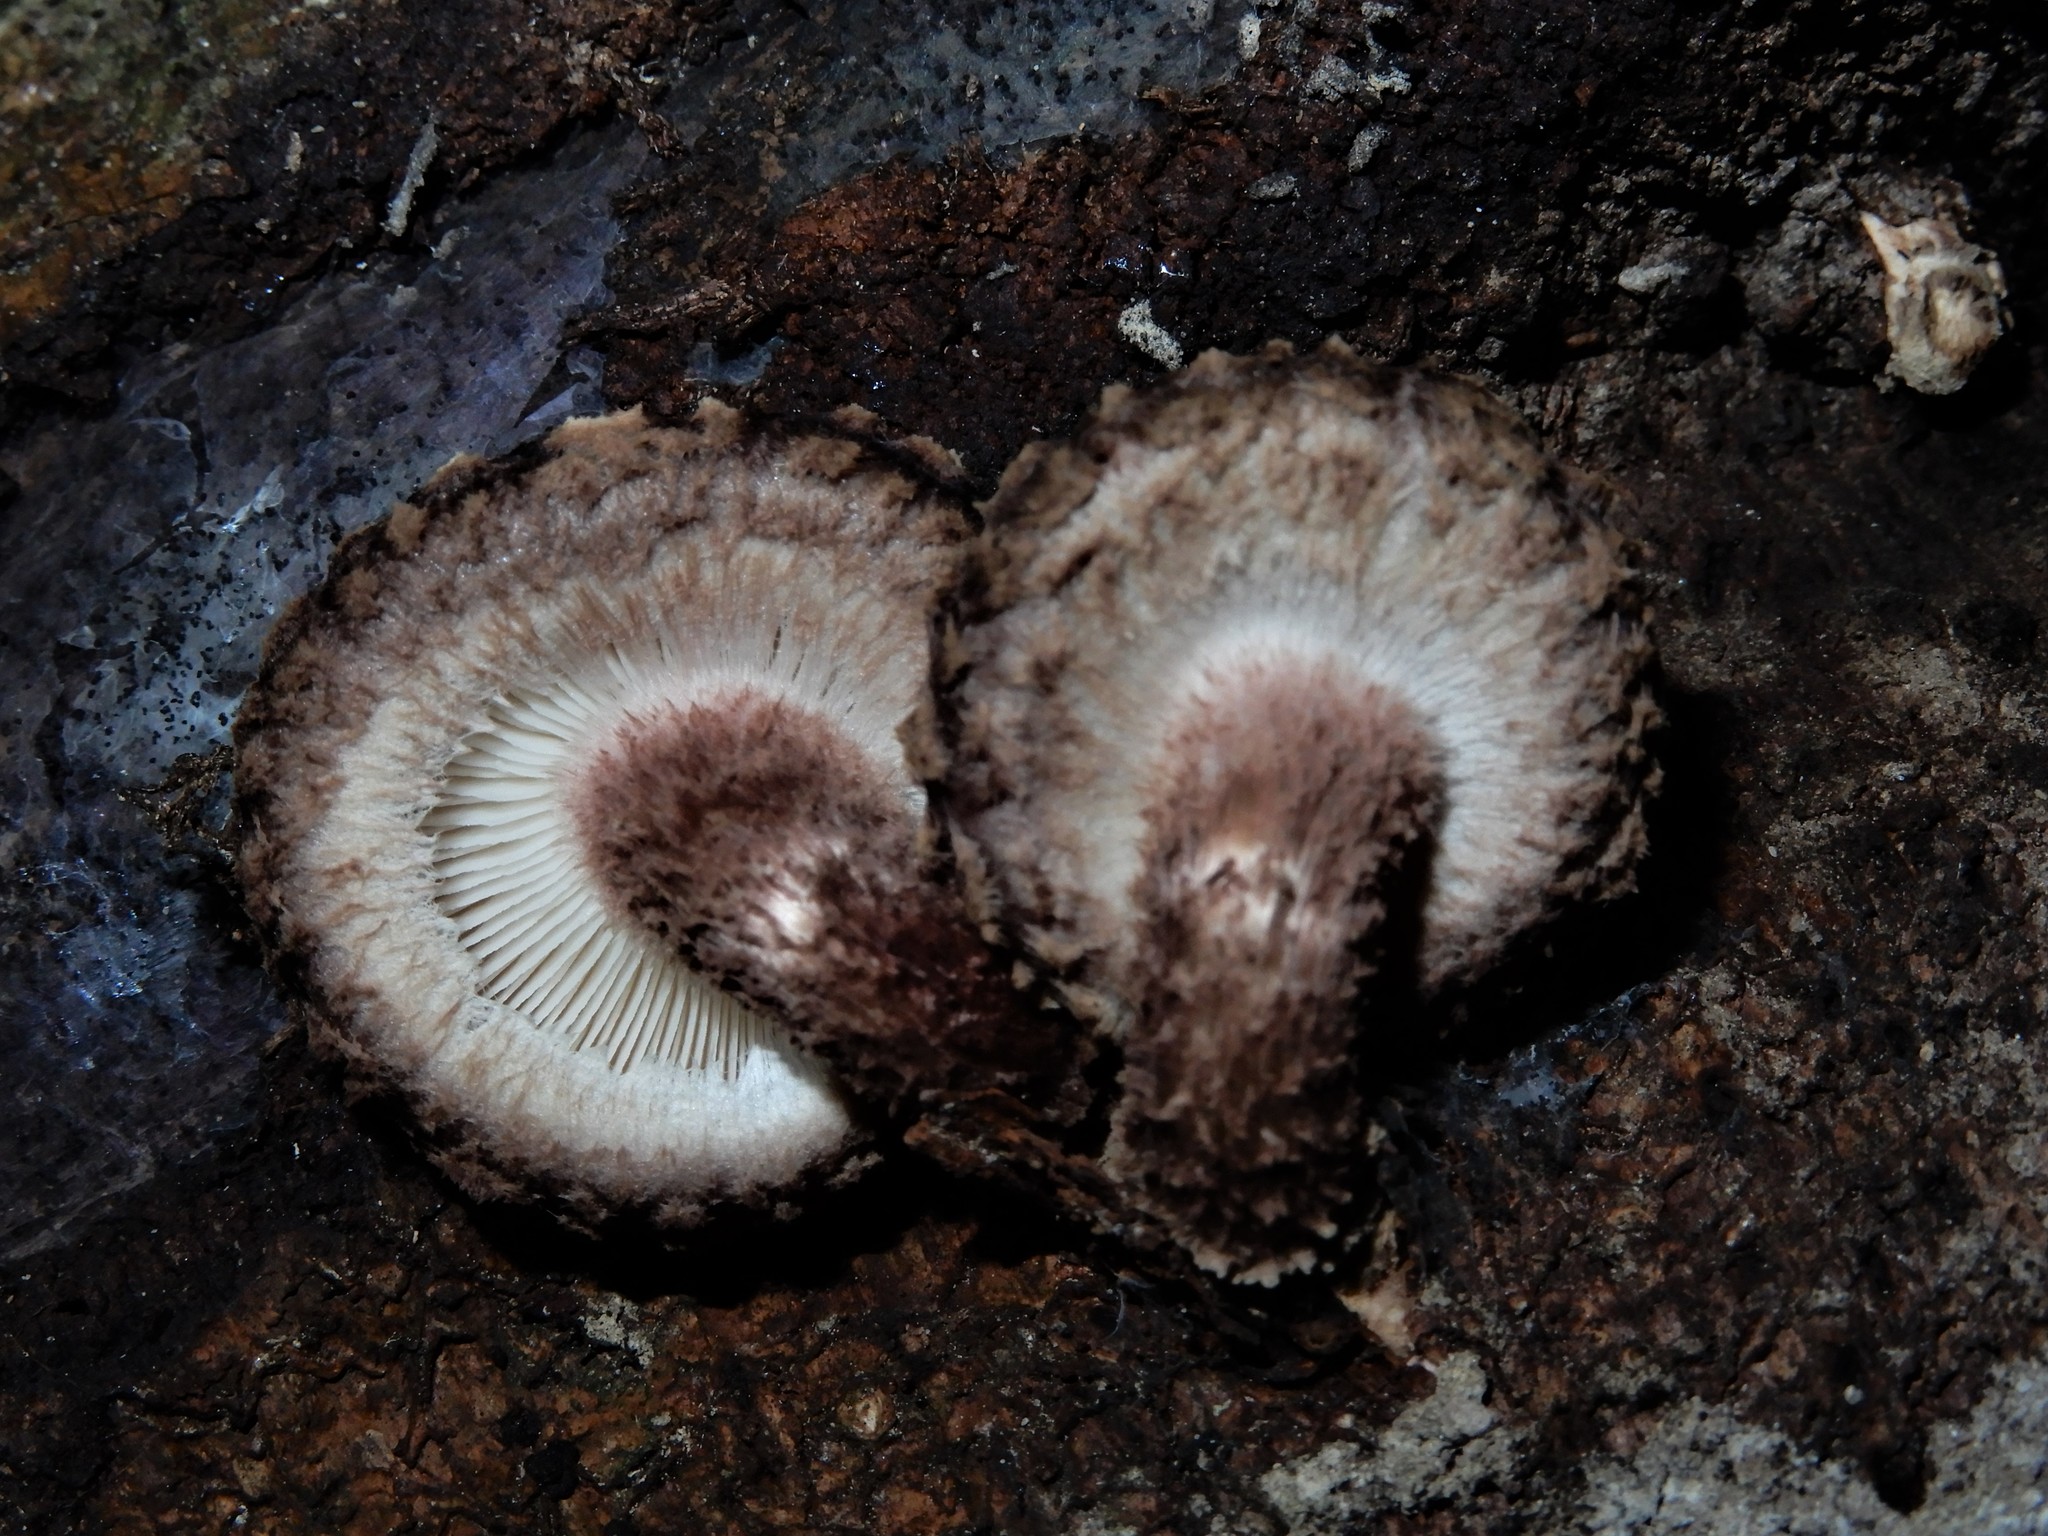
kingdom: Fungi
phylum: Basidiomycota
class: Agaricomycetes
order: Agaricales
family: Omphalotaceae
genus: Lentinula
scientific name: Lentinula novae-zelandiae
